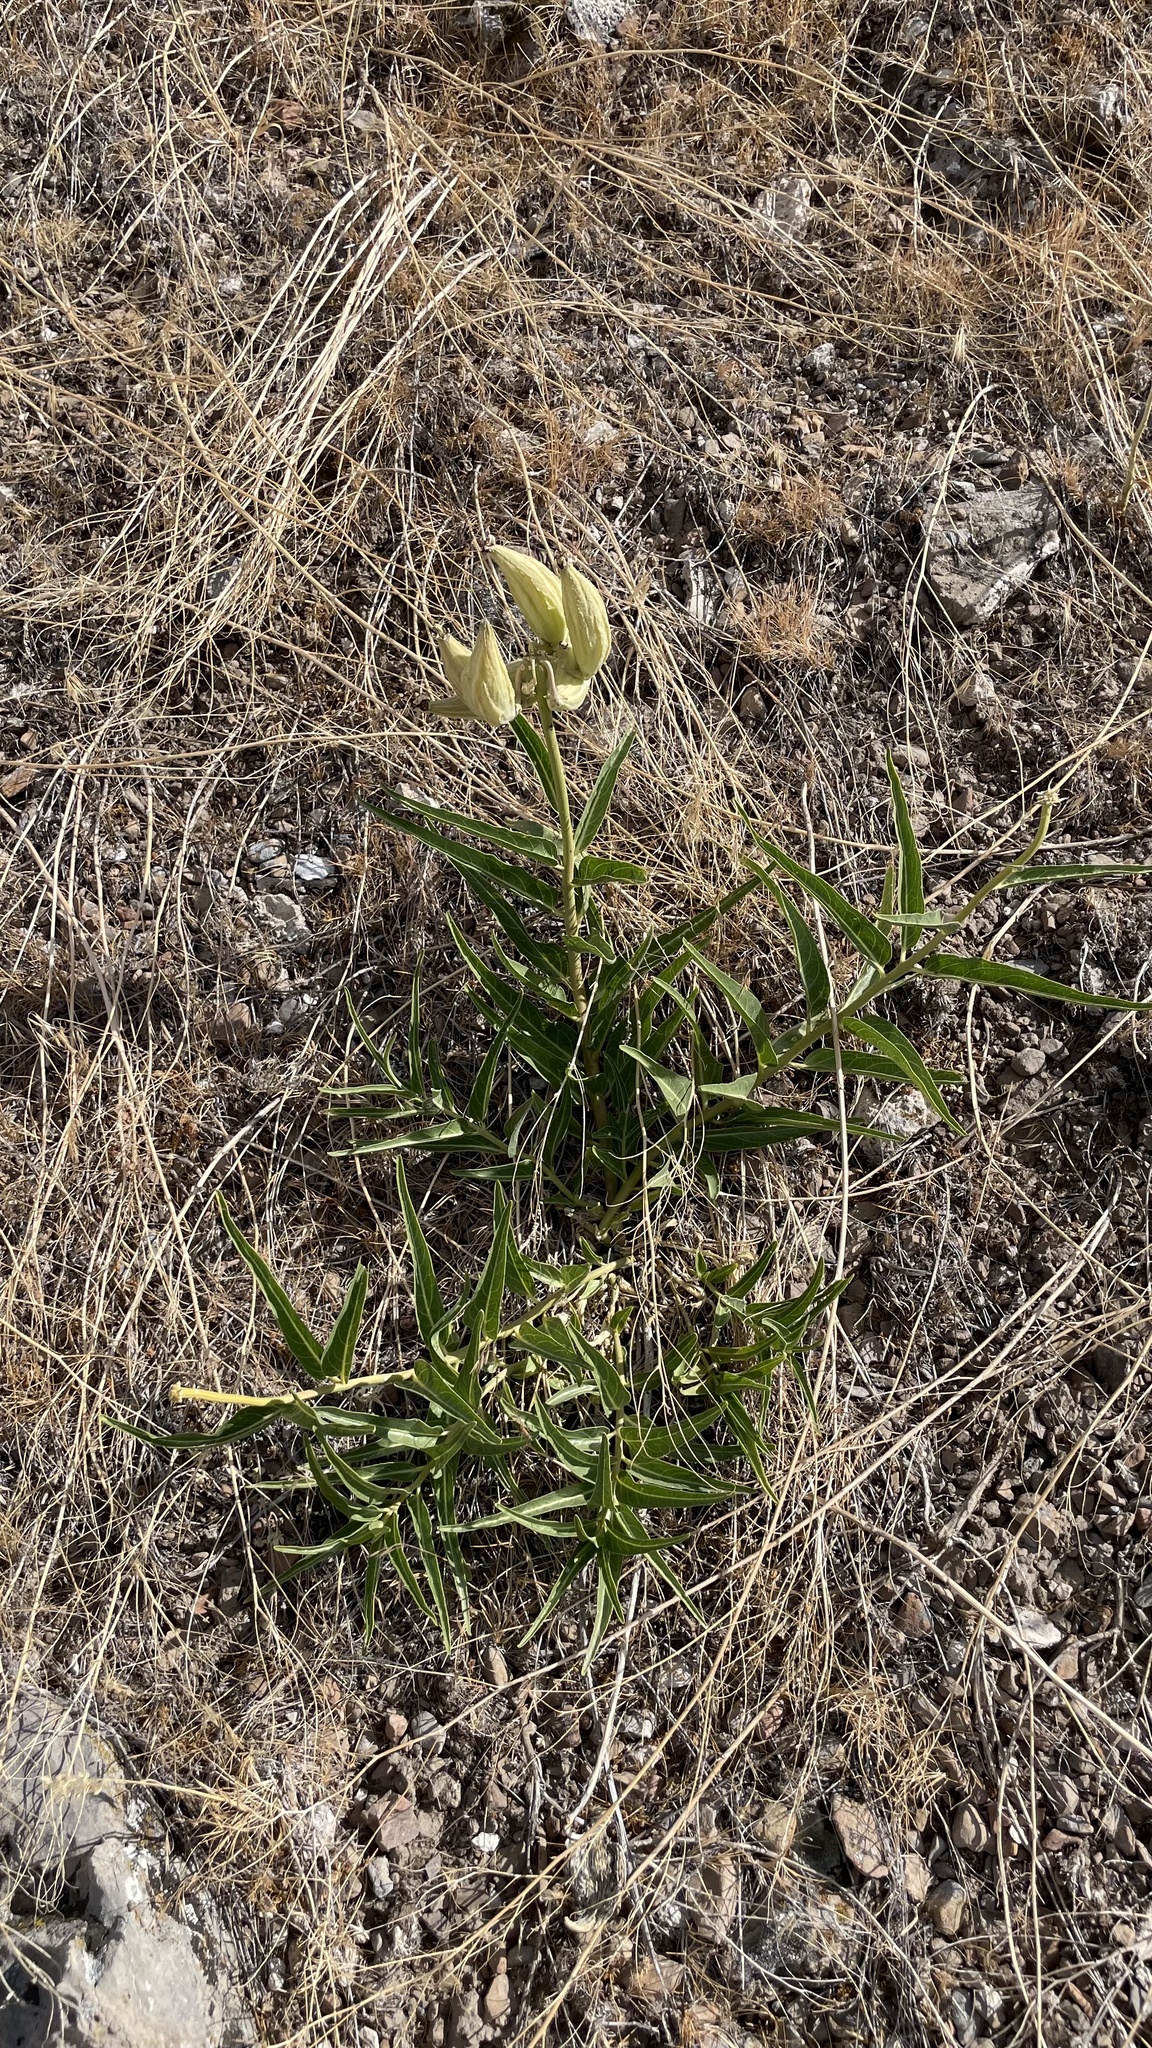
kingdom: Plantae
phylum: Tracheophyta
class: Magnoliopsida
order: Gentianales
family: Apocynaceae
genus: Asclepias
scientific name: Asclepias asperula
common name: Antelope horns
